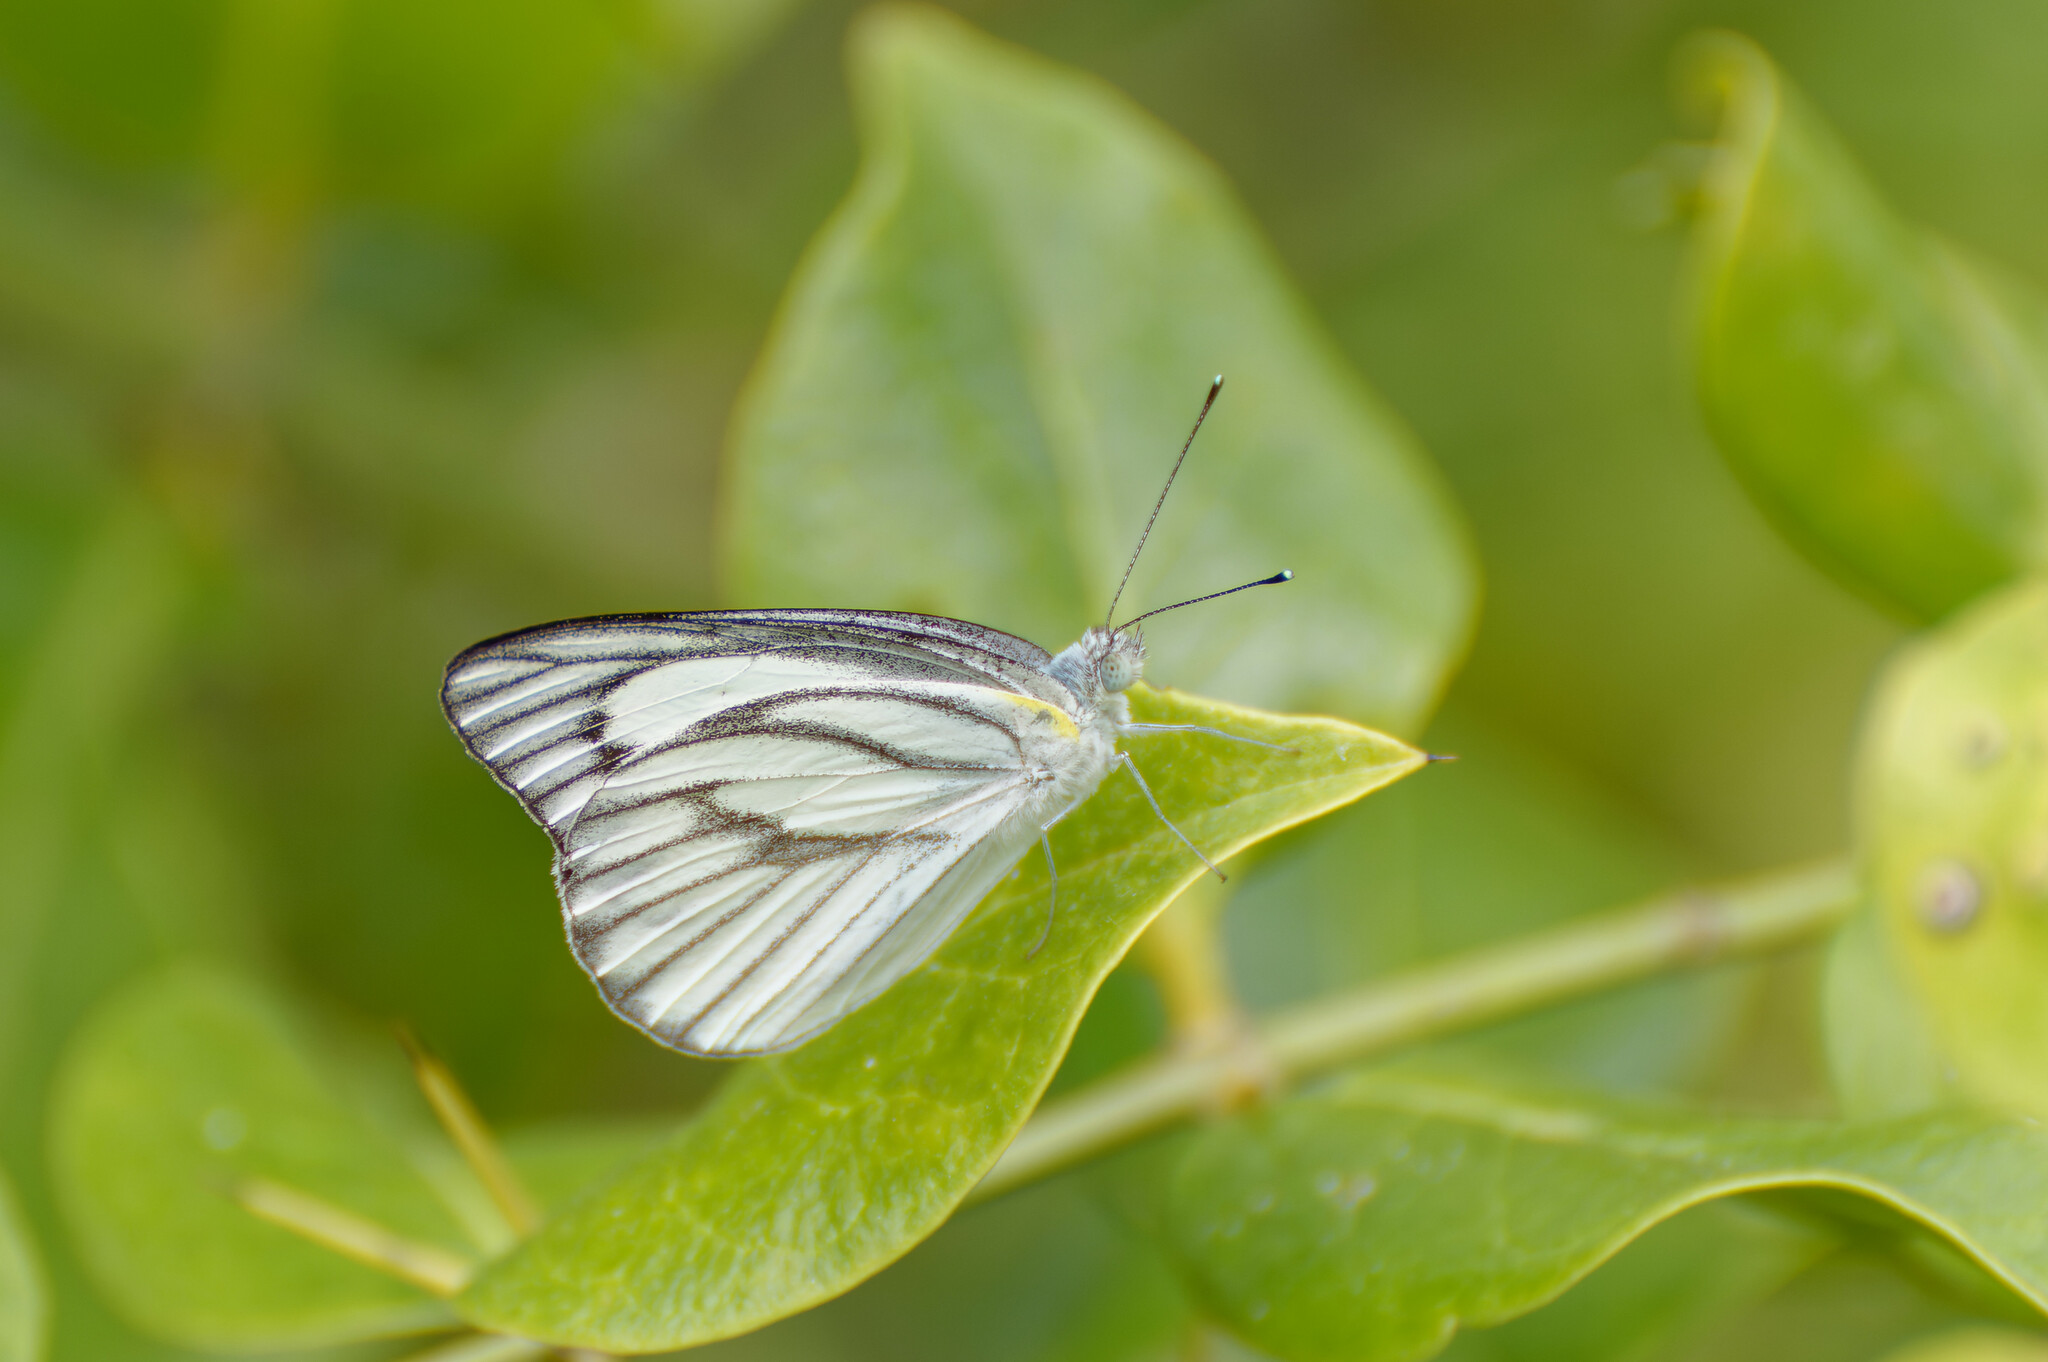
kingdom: Animalia
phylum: Arthropoda
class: Insecta
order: Lepidoptera
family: Pieridae
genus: Appias
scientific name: Appias libythea
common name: Striped albatross
